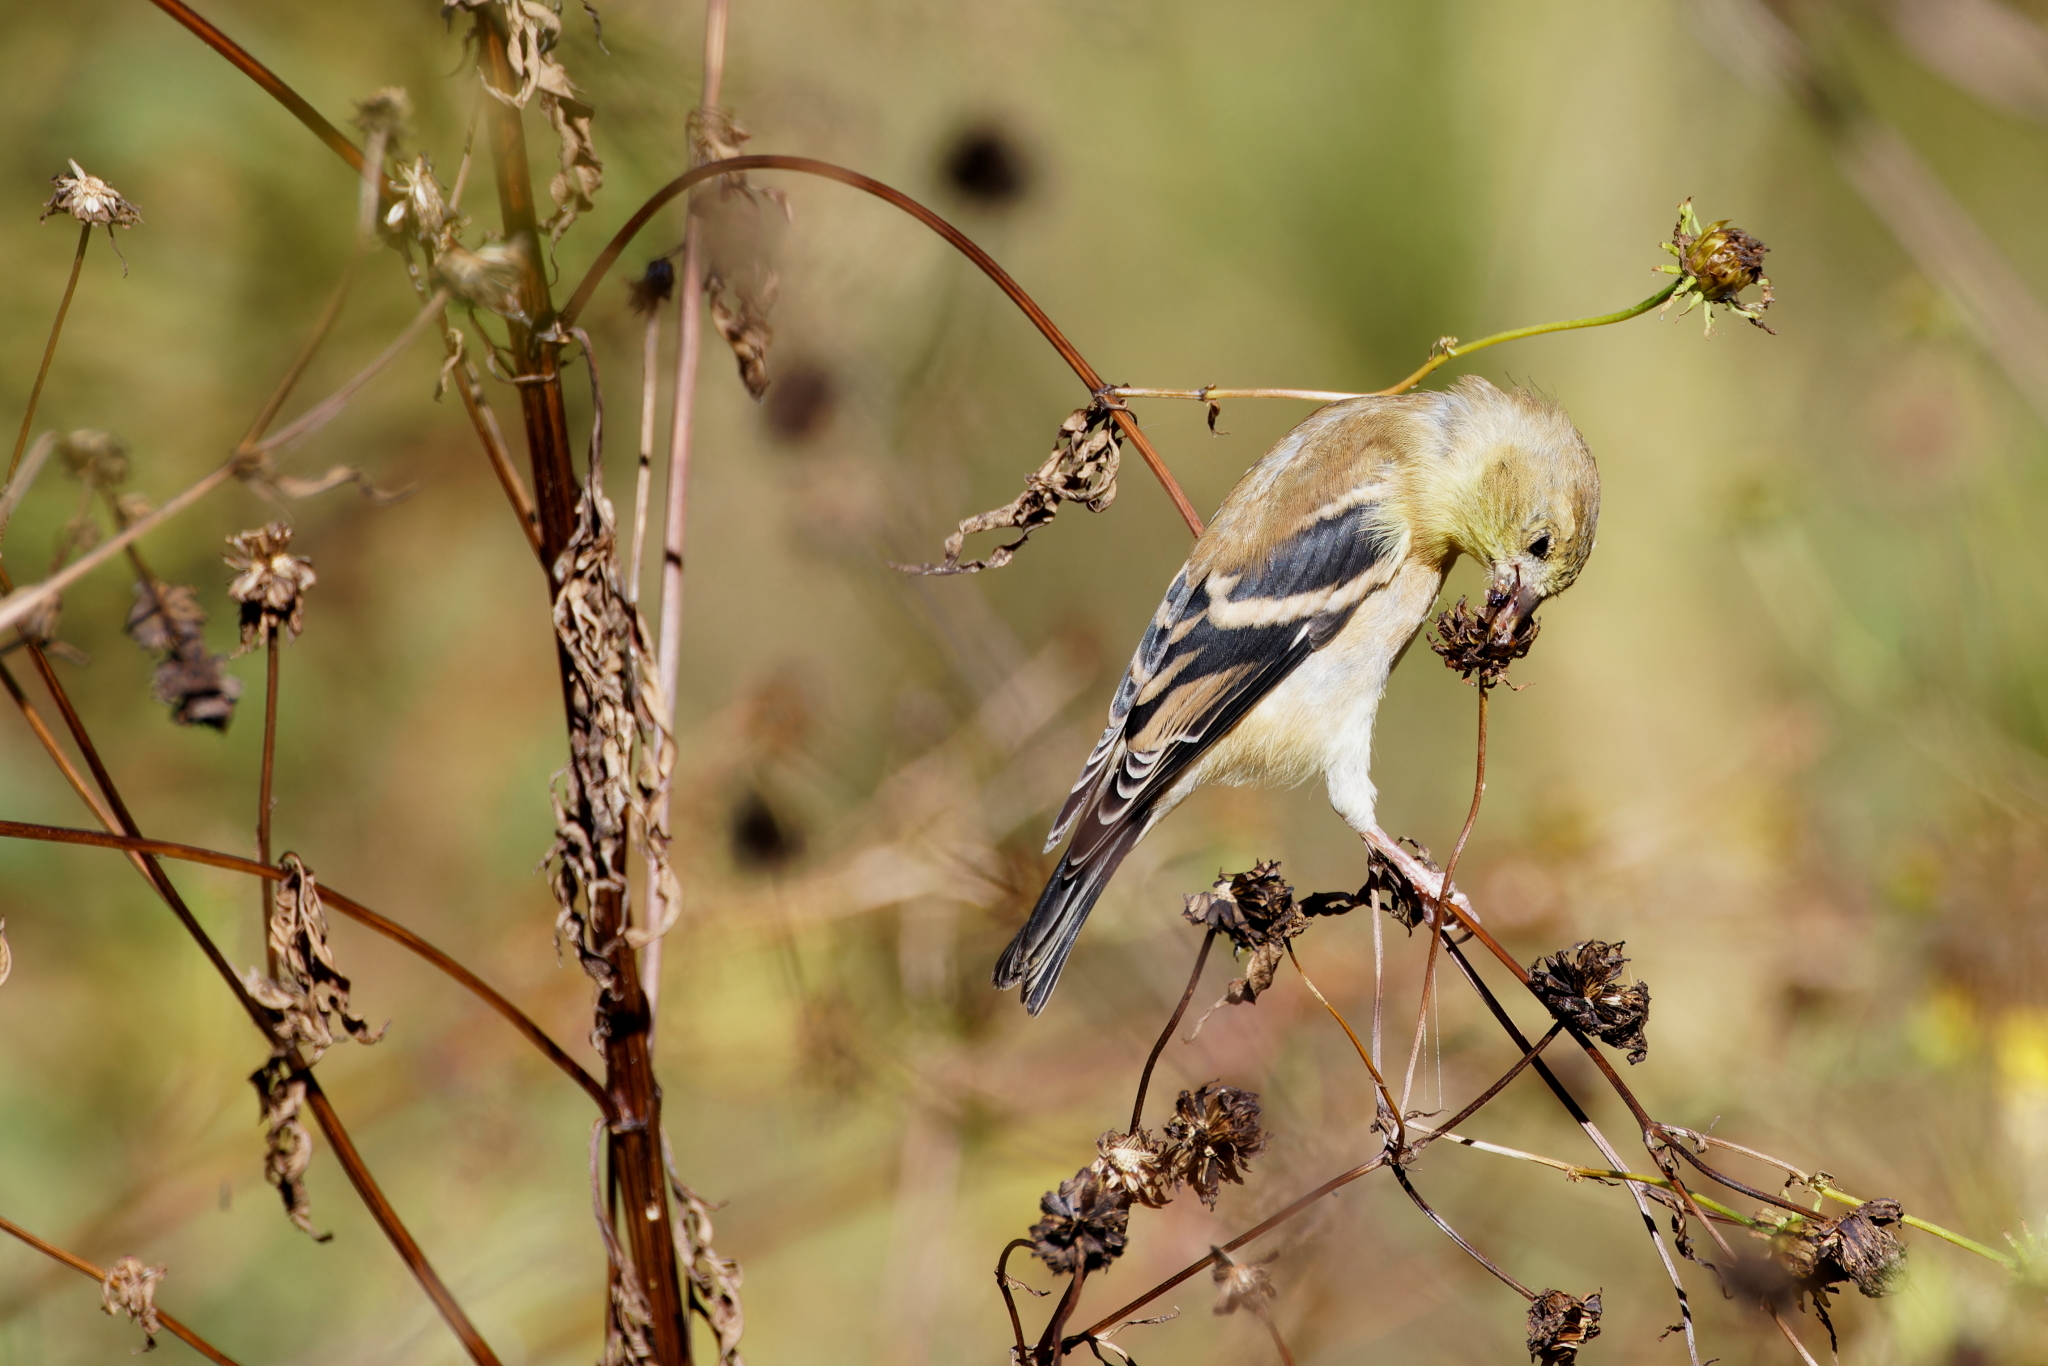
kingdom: Animalia
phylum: Chordata
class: Aves
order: Passeriformes
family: Fringillidae
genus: Spinus
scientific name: Spinus tristis
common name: American goldfinch
